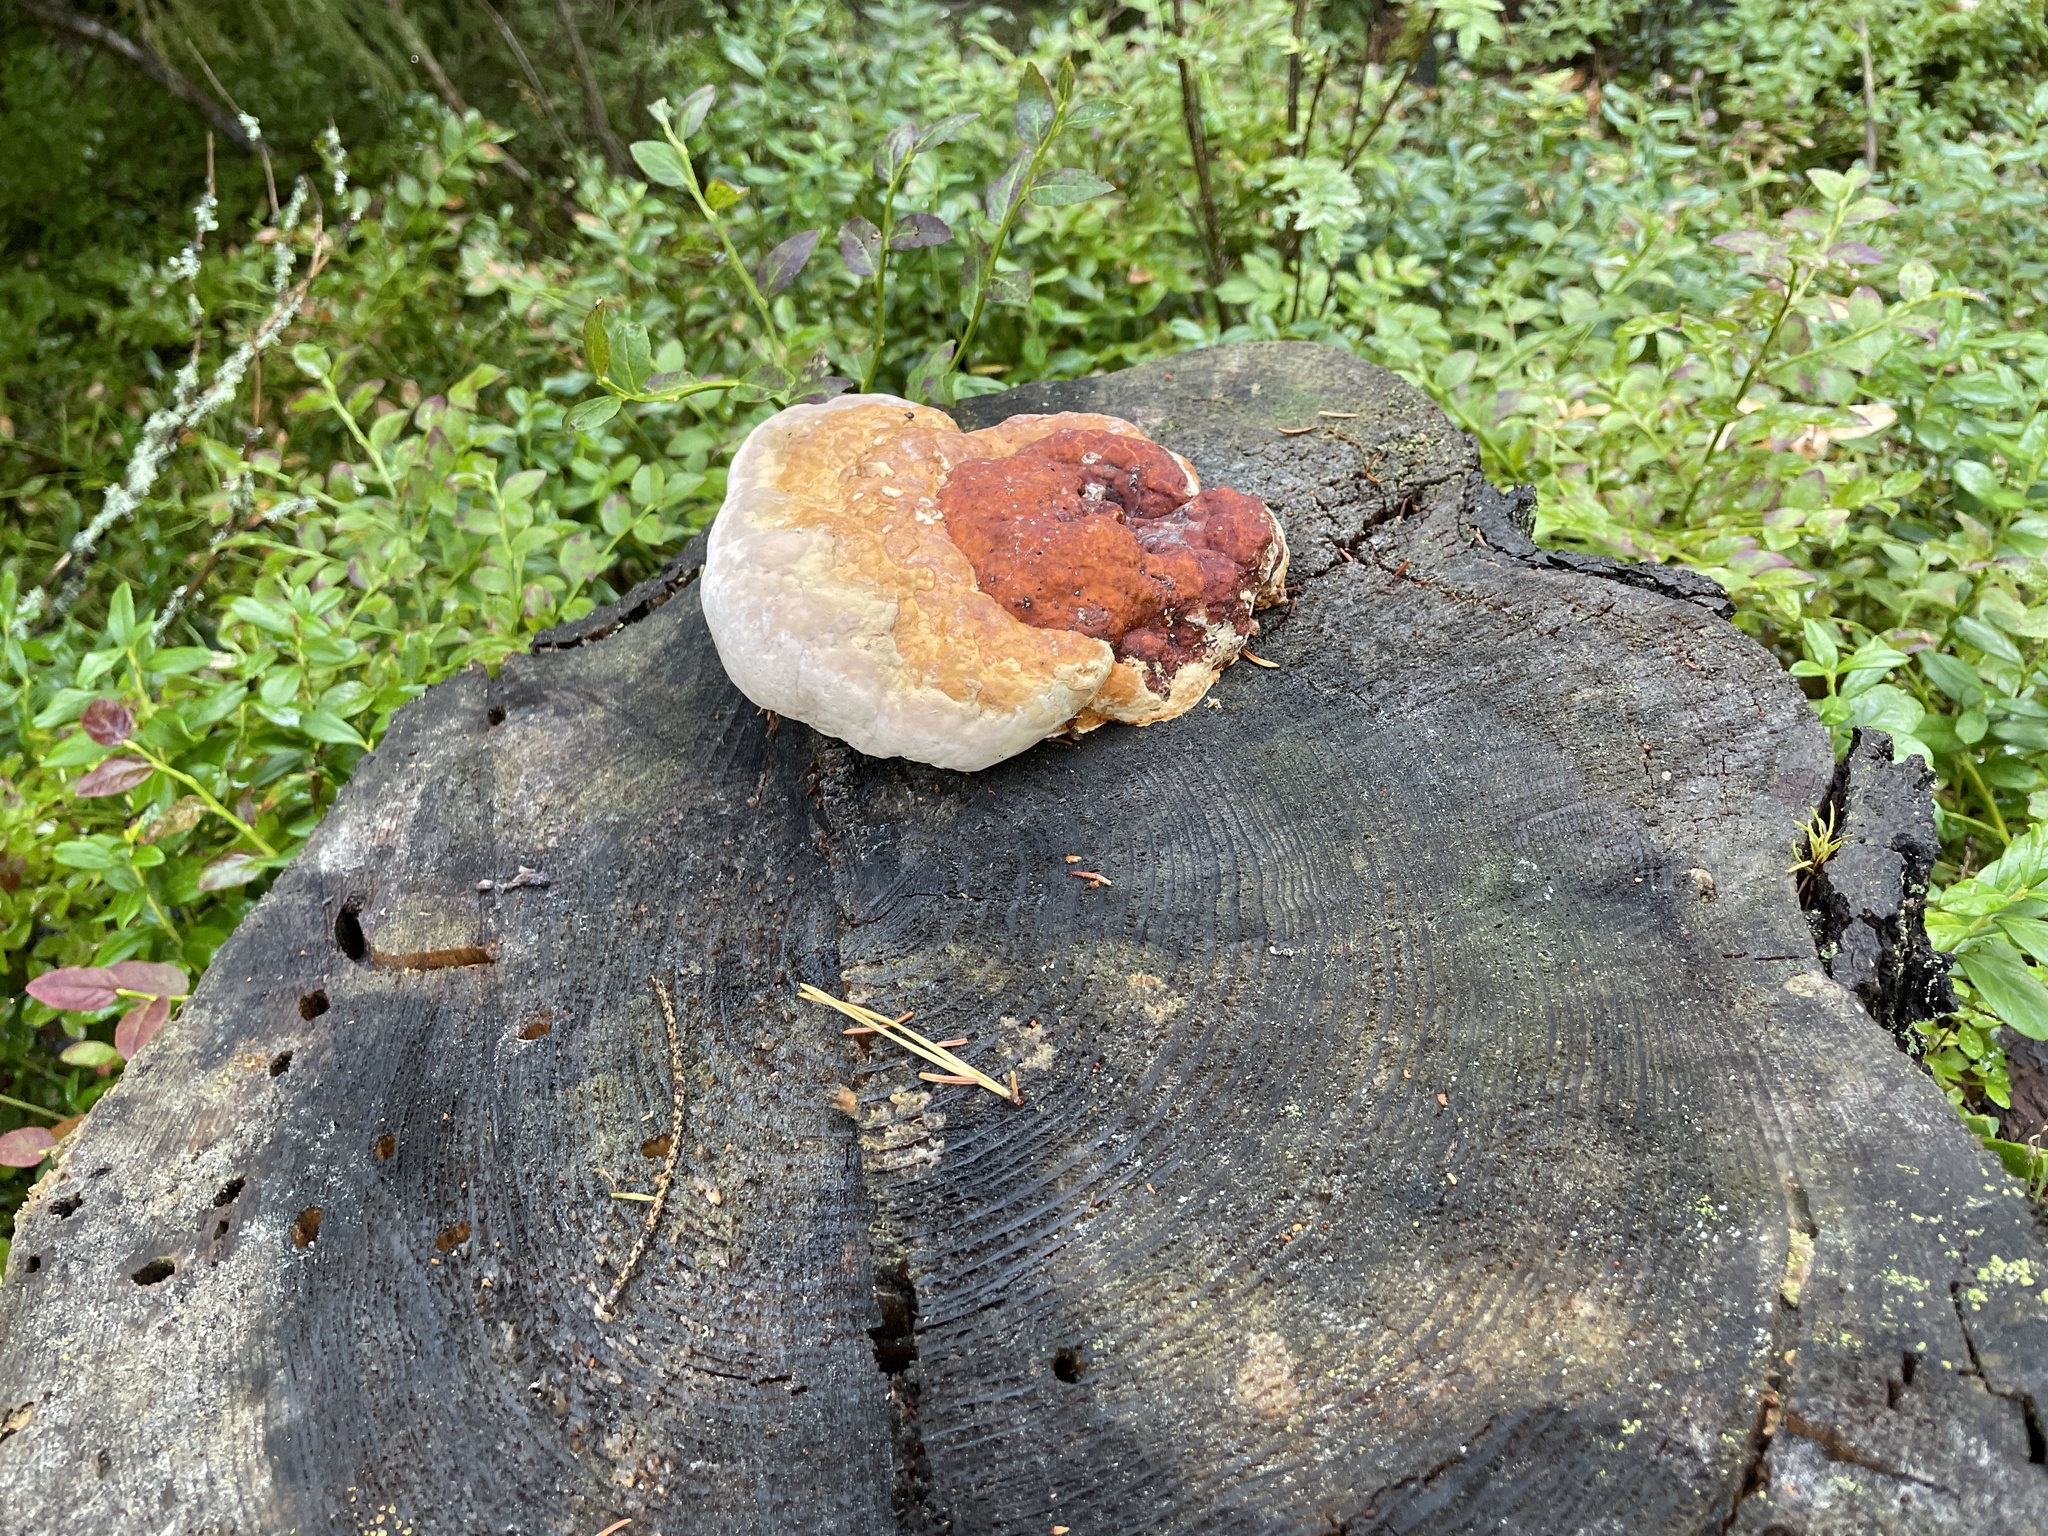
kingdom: Fungi
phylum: Basidiomycota
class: Agaricomycetes
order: Polyporales
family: Fomitopsidaceae
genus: Fomitopsis
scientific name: Fomitopsis pinicola
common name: Red-belted bracket
